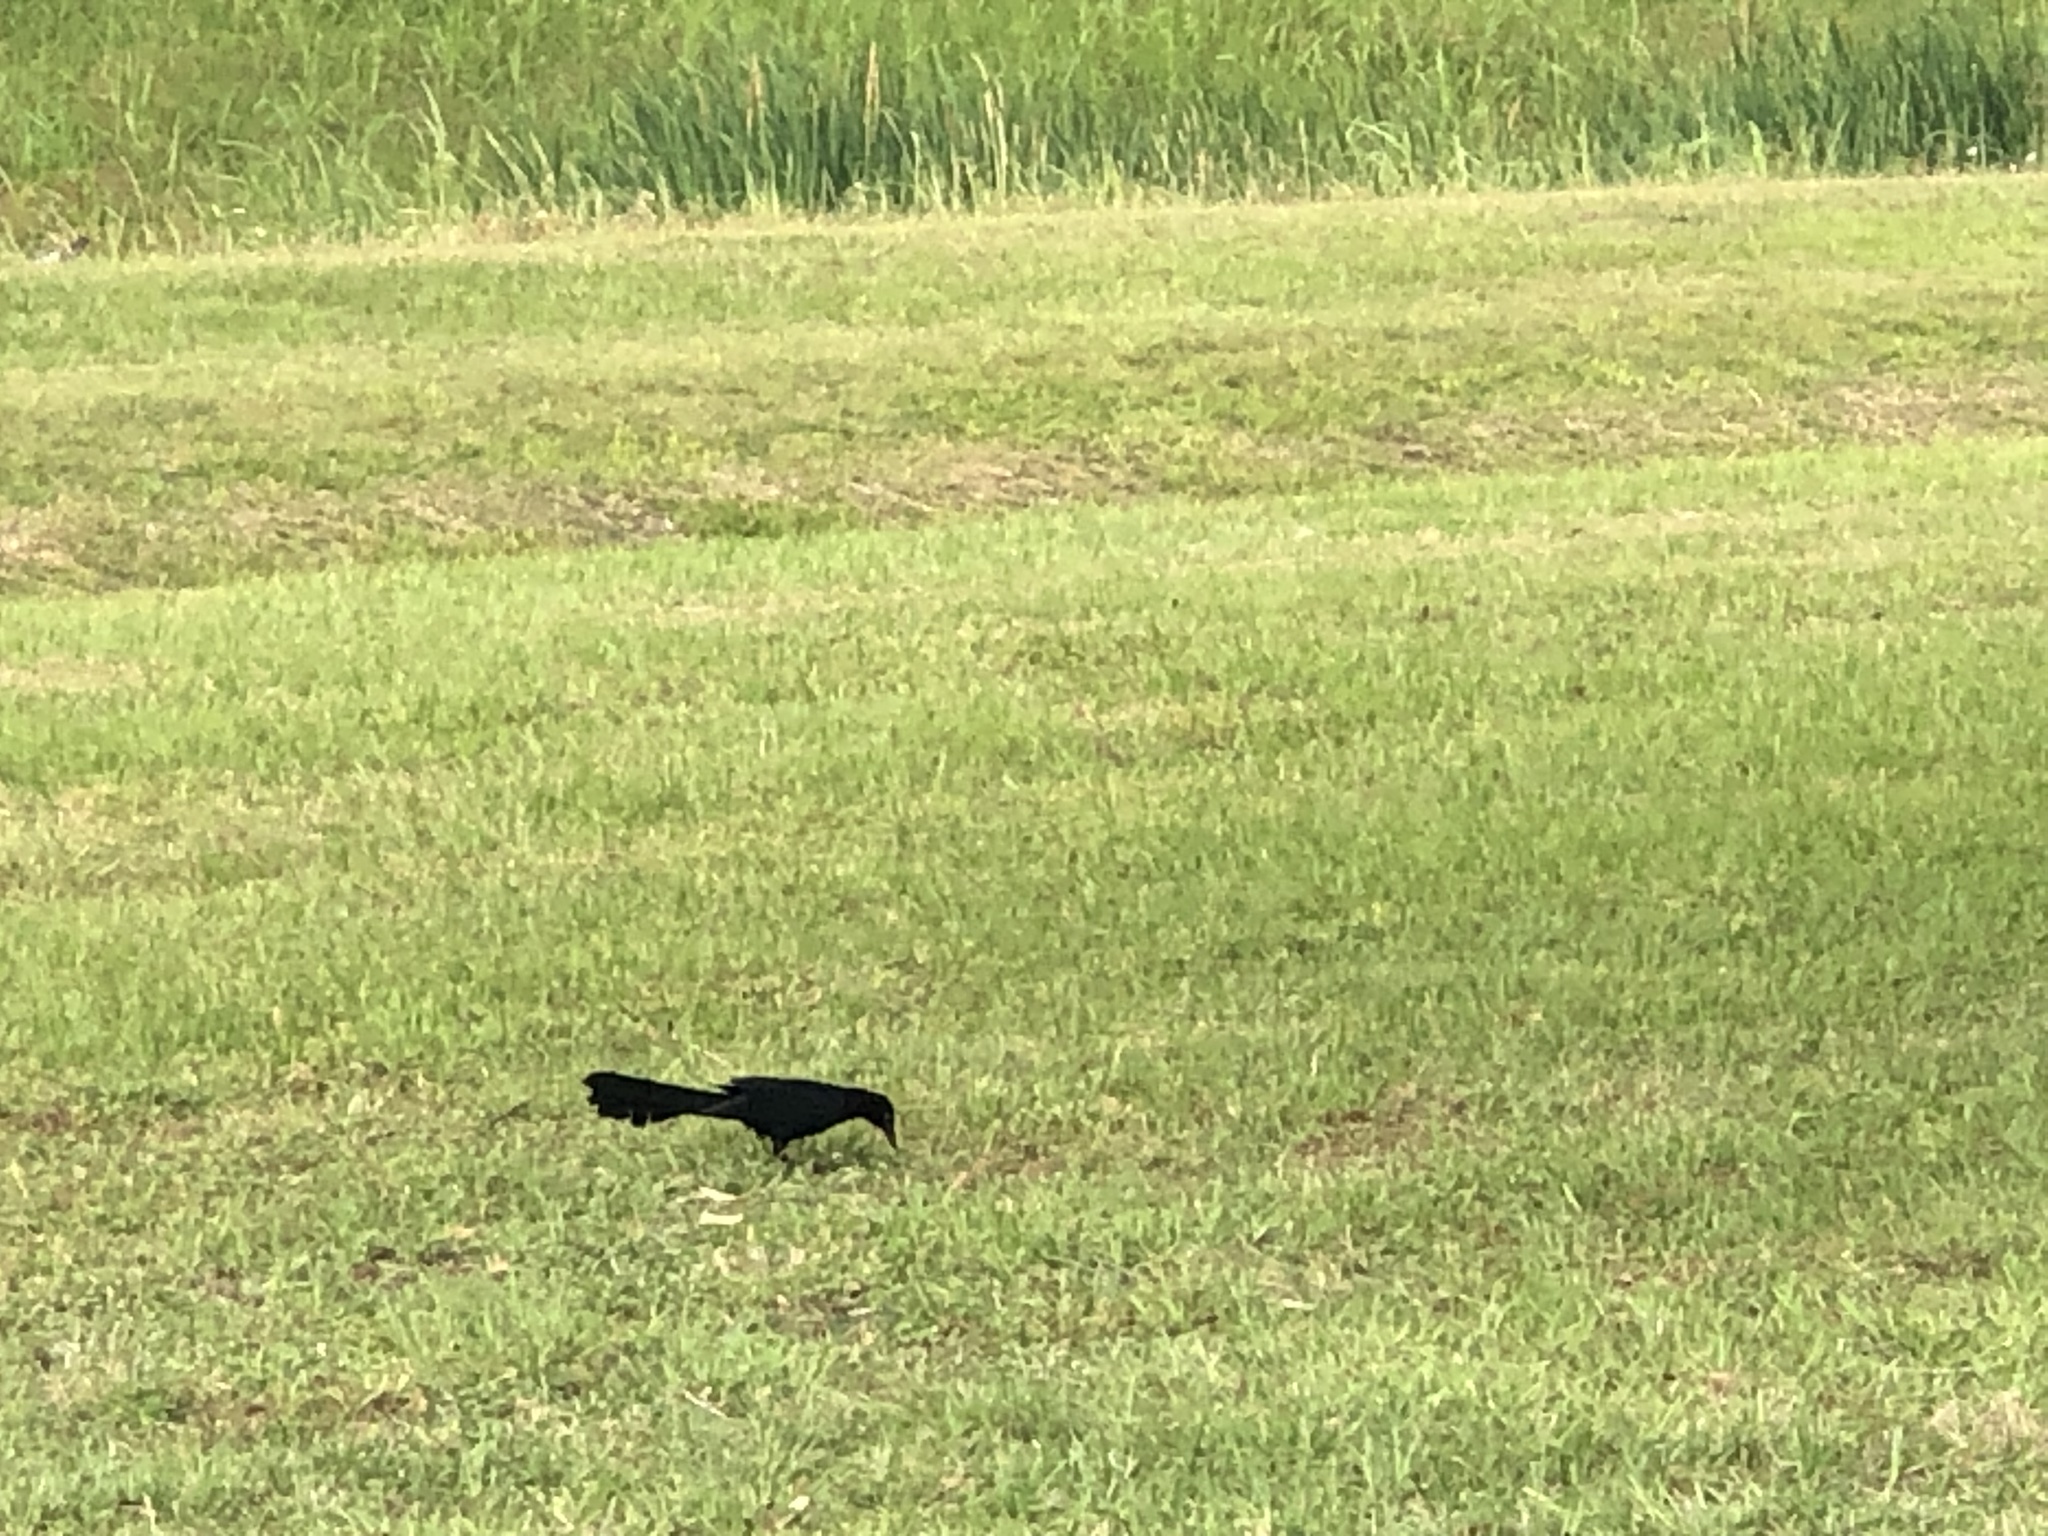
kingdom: Animalia
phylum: Chordata
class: Aves
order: Passeriformes
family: Icteridae
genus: Quiscalus
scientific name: Quiscalus mexicanus
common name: Great-tailed grackle
